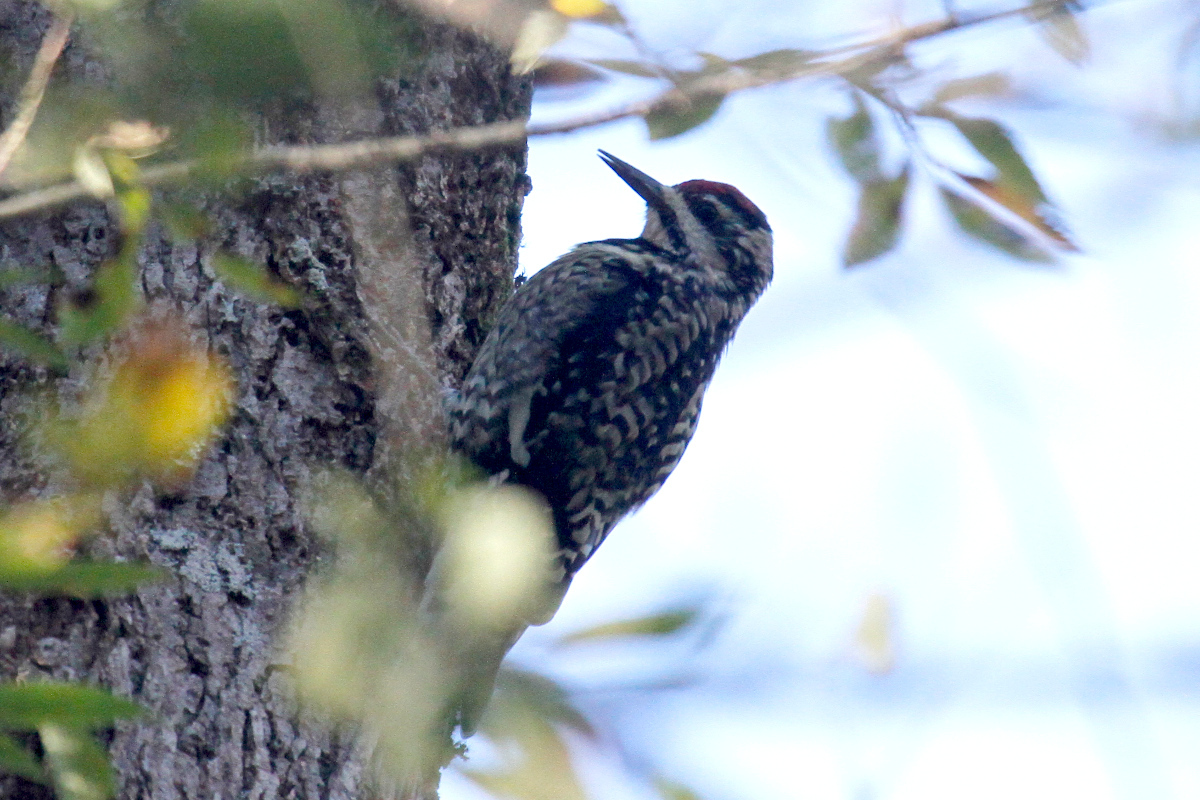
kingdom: Animalia
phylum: Chordata
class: Aves
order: Piciformes
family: Picidae
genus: Sphyrapicus
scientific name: Sphyrapicus varius
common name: Yellow-bellied sapsucker
